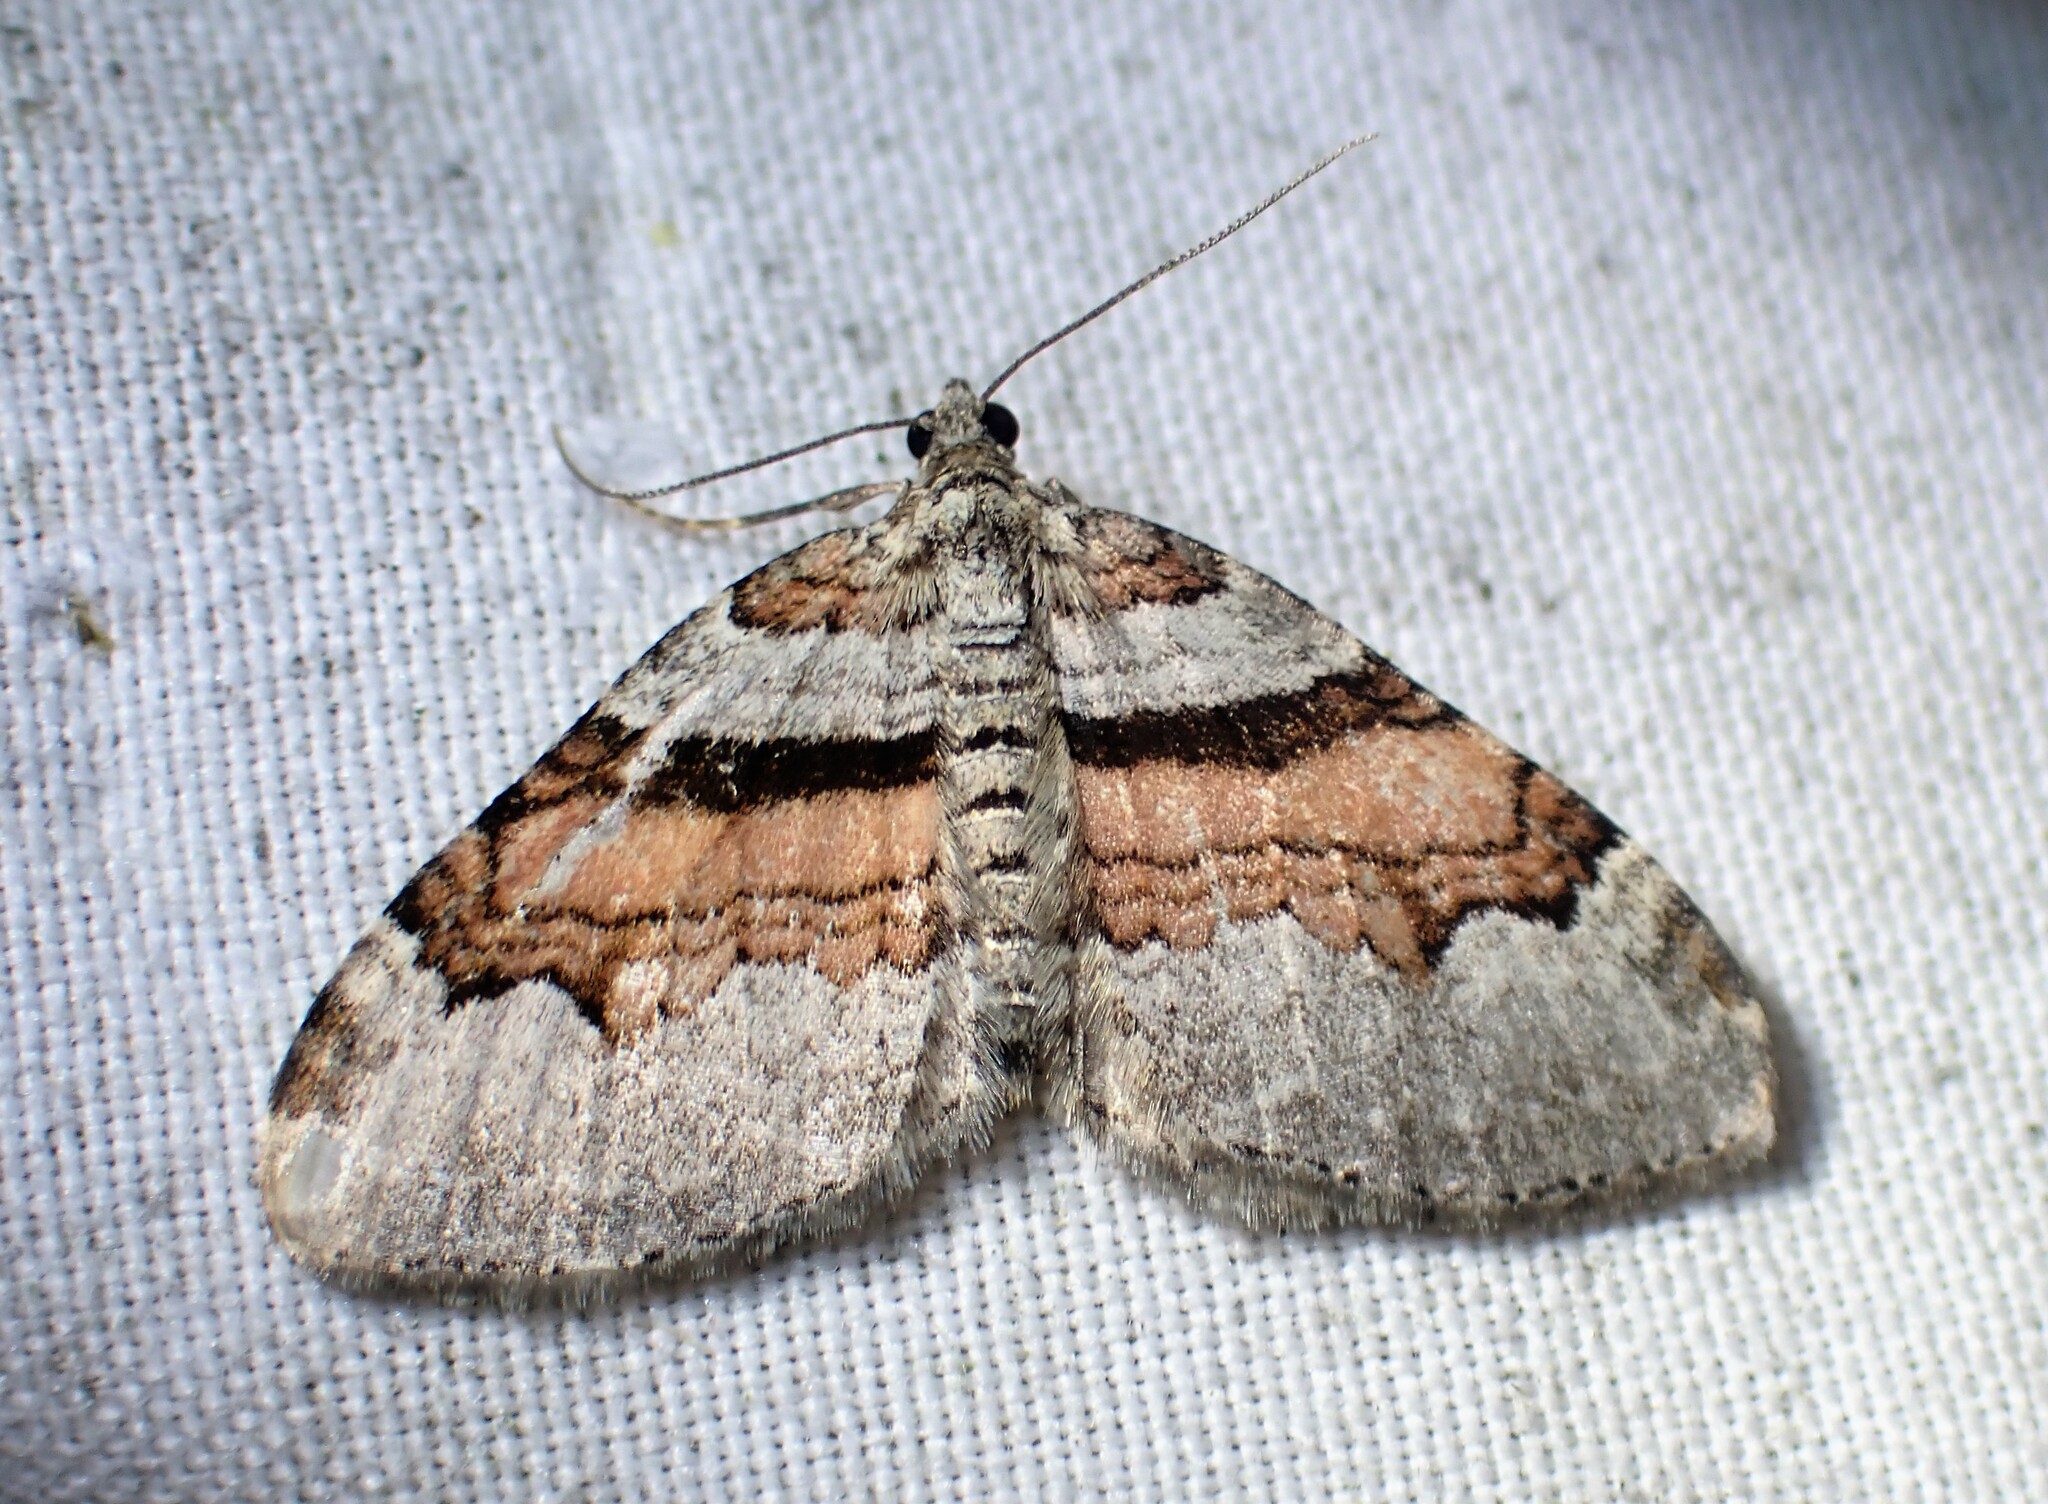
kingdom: Animalia
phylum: Arthropoda
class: Insecta
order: Lepidoptera
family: Geometridae
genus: Xanthorhoe
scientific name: Xanthorhoe labradorensis
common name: Labrador carpet
